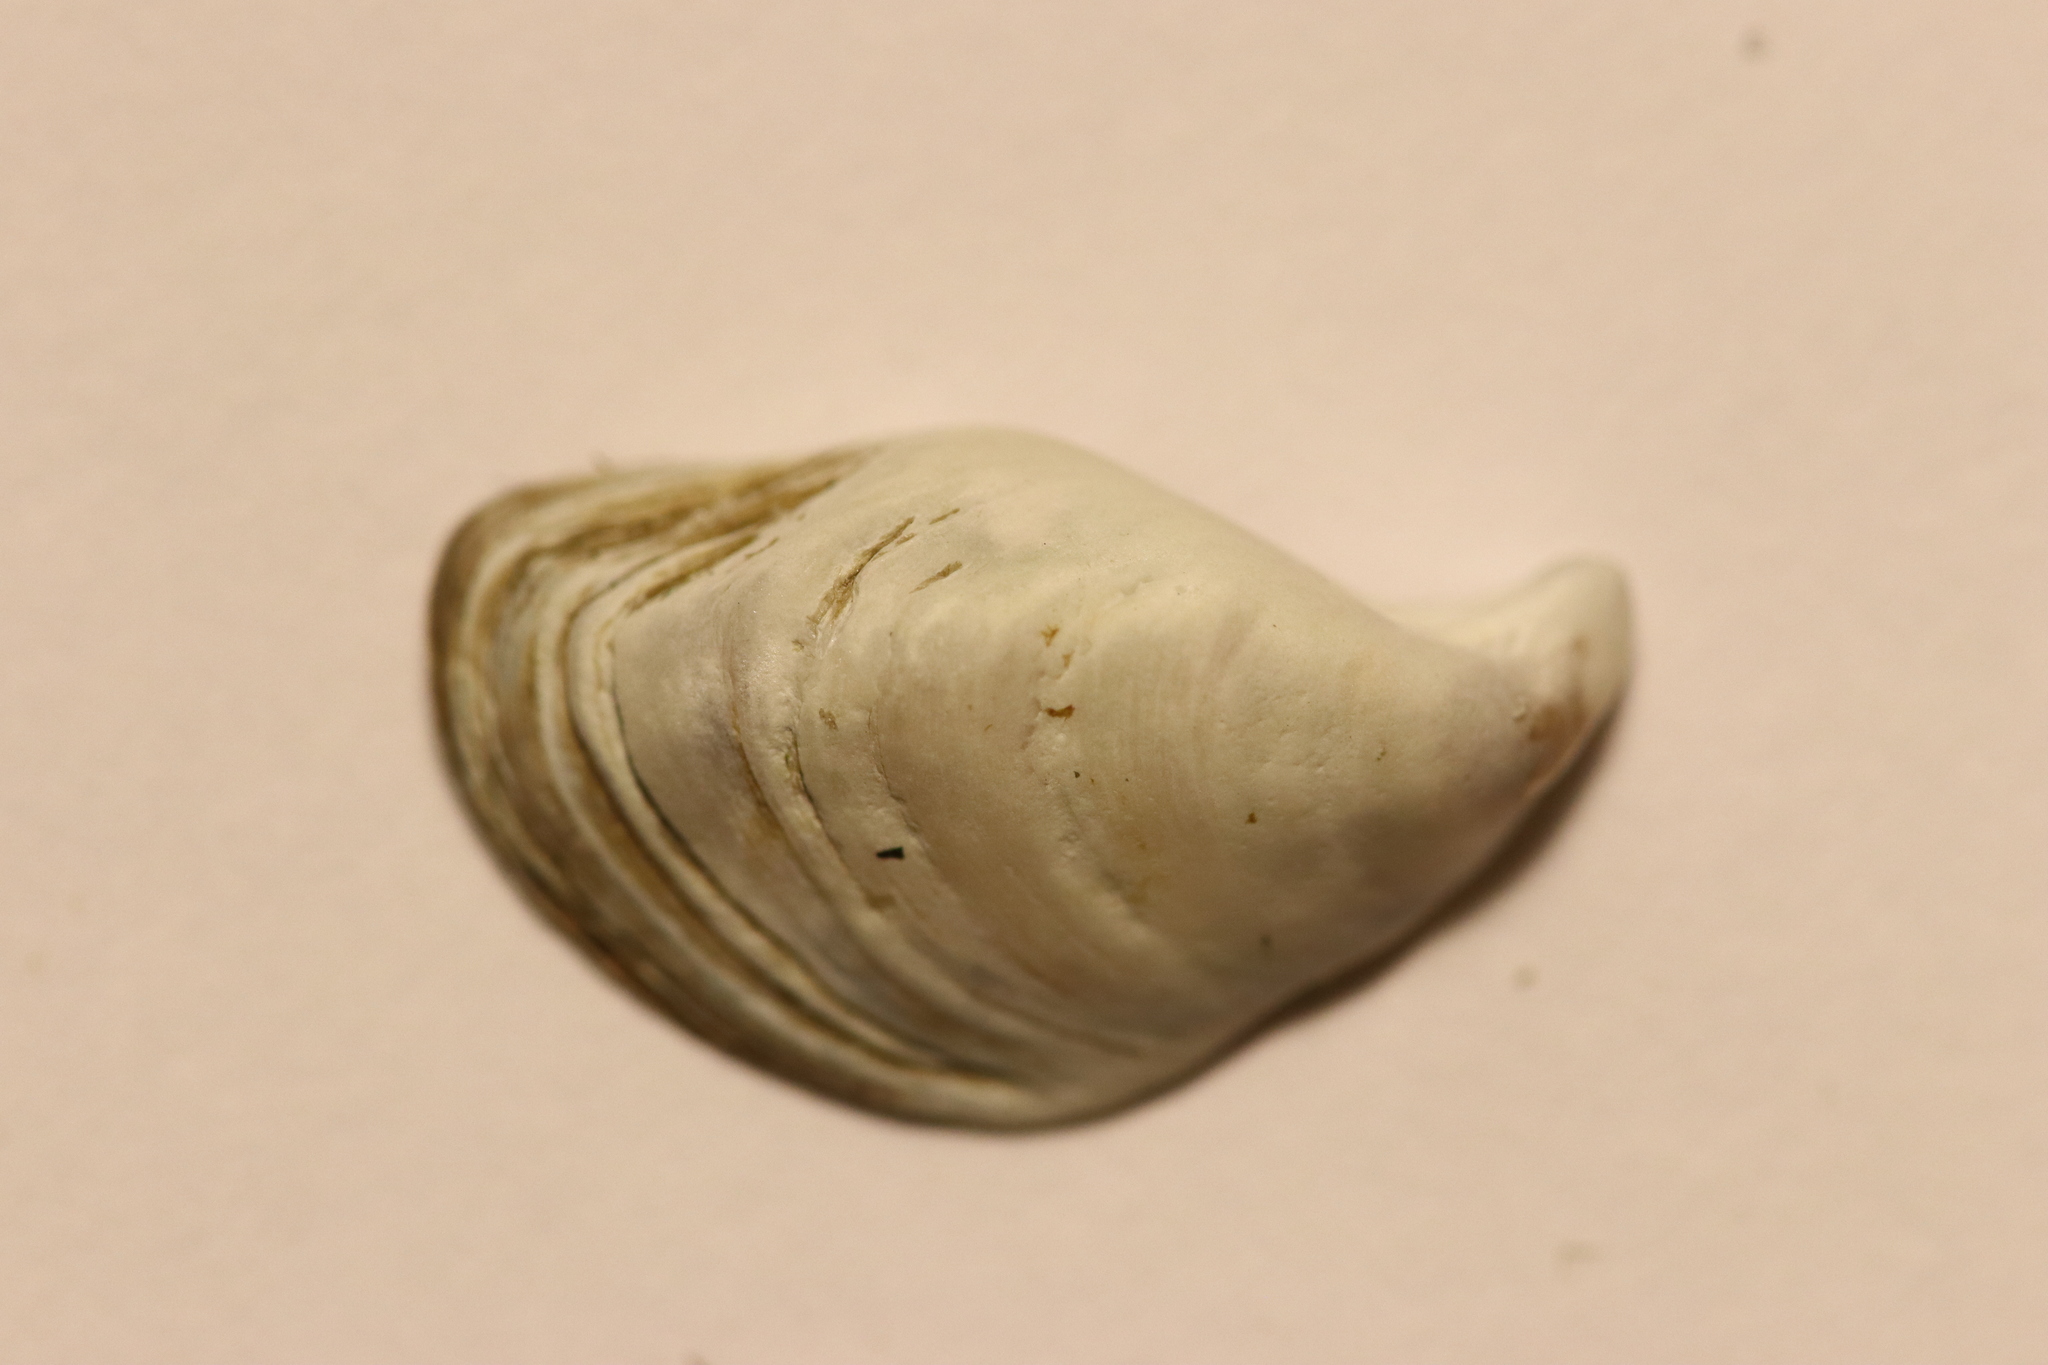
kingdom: Animalia
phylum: Mollusca
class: Bivalvia
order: Myida
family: Dreissenidae
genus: Dreissena
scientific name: Dreissena bugensis
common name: Quagga mussel
